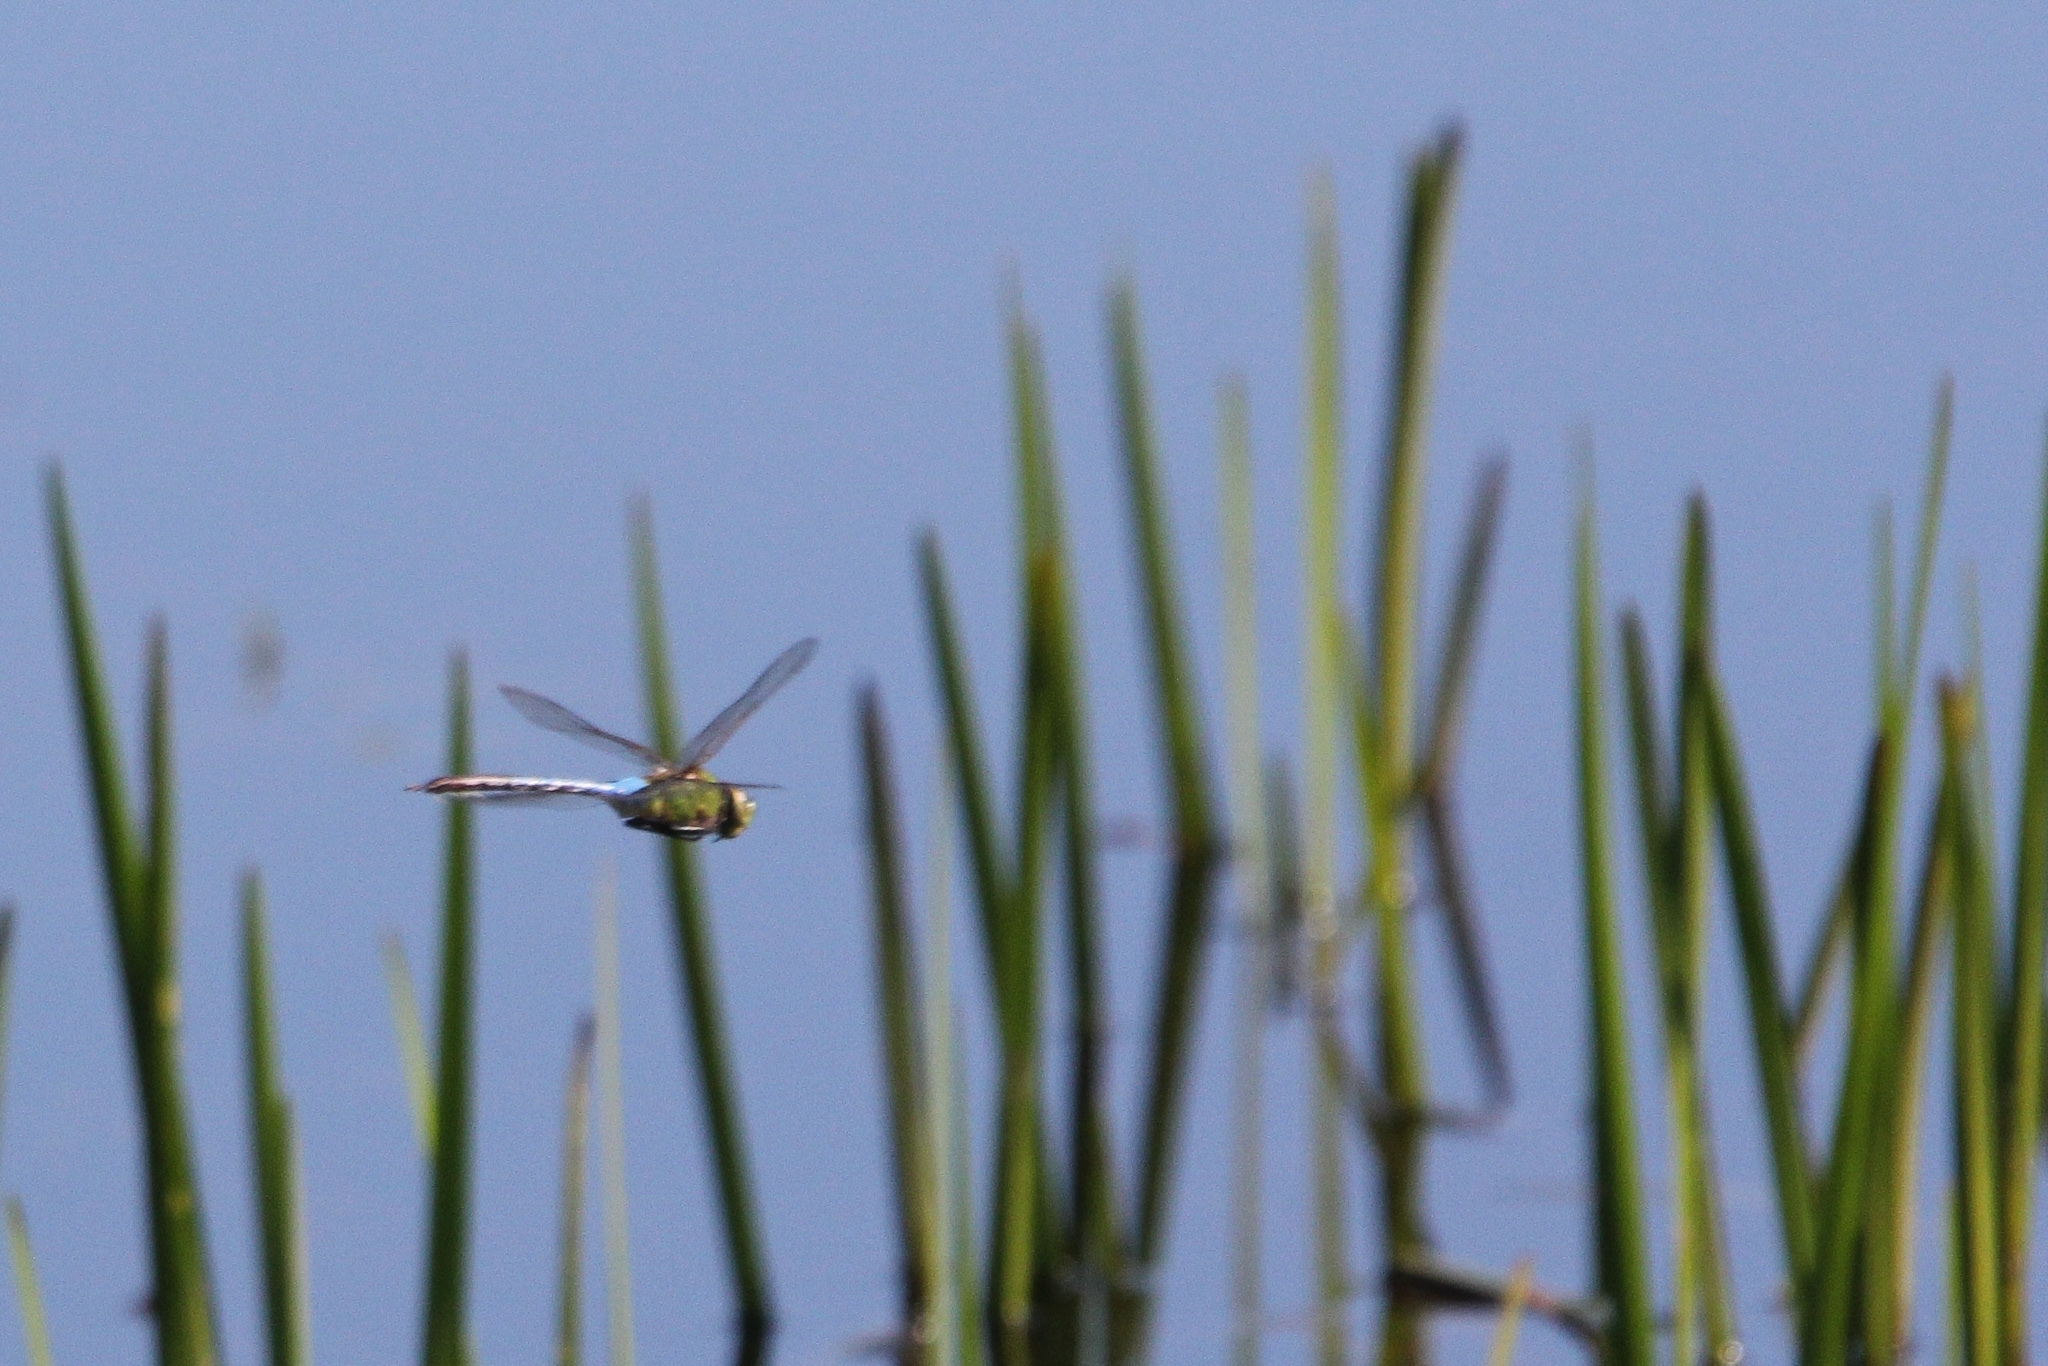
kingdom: Animalia
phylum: Arthropoda
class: Insecta
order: Odonata
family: Aeshnidae
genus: Anax
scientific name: Anax junius
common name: Common green darner
